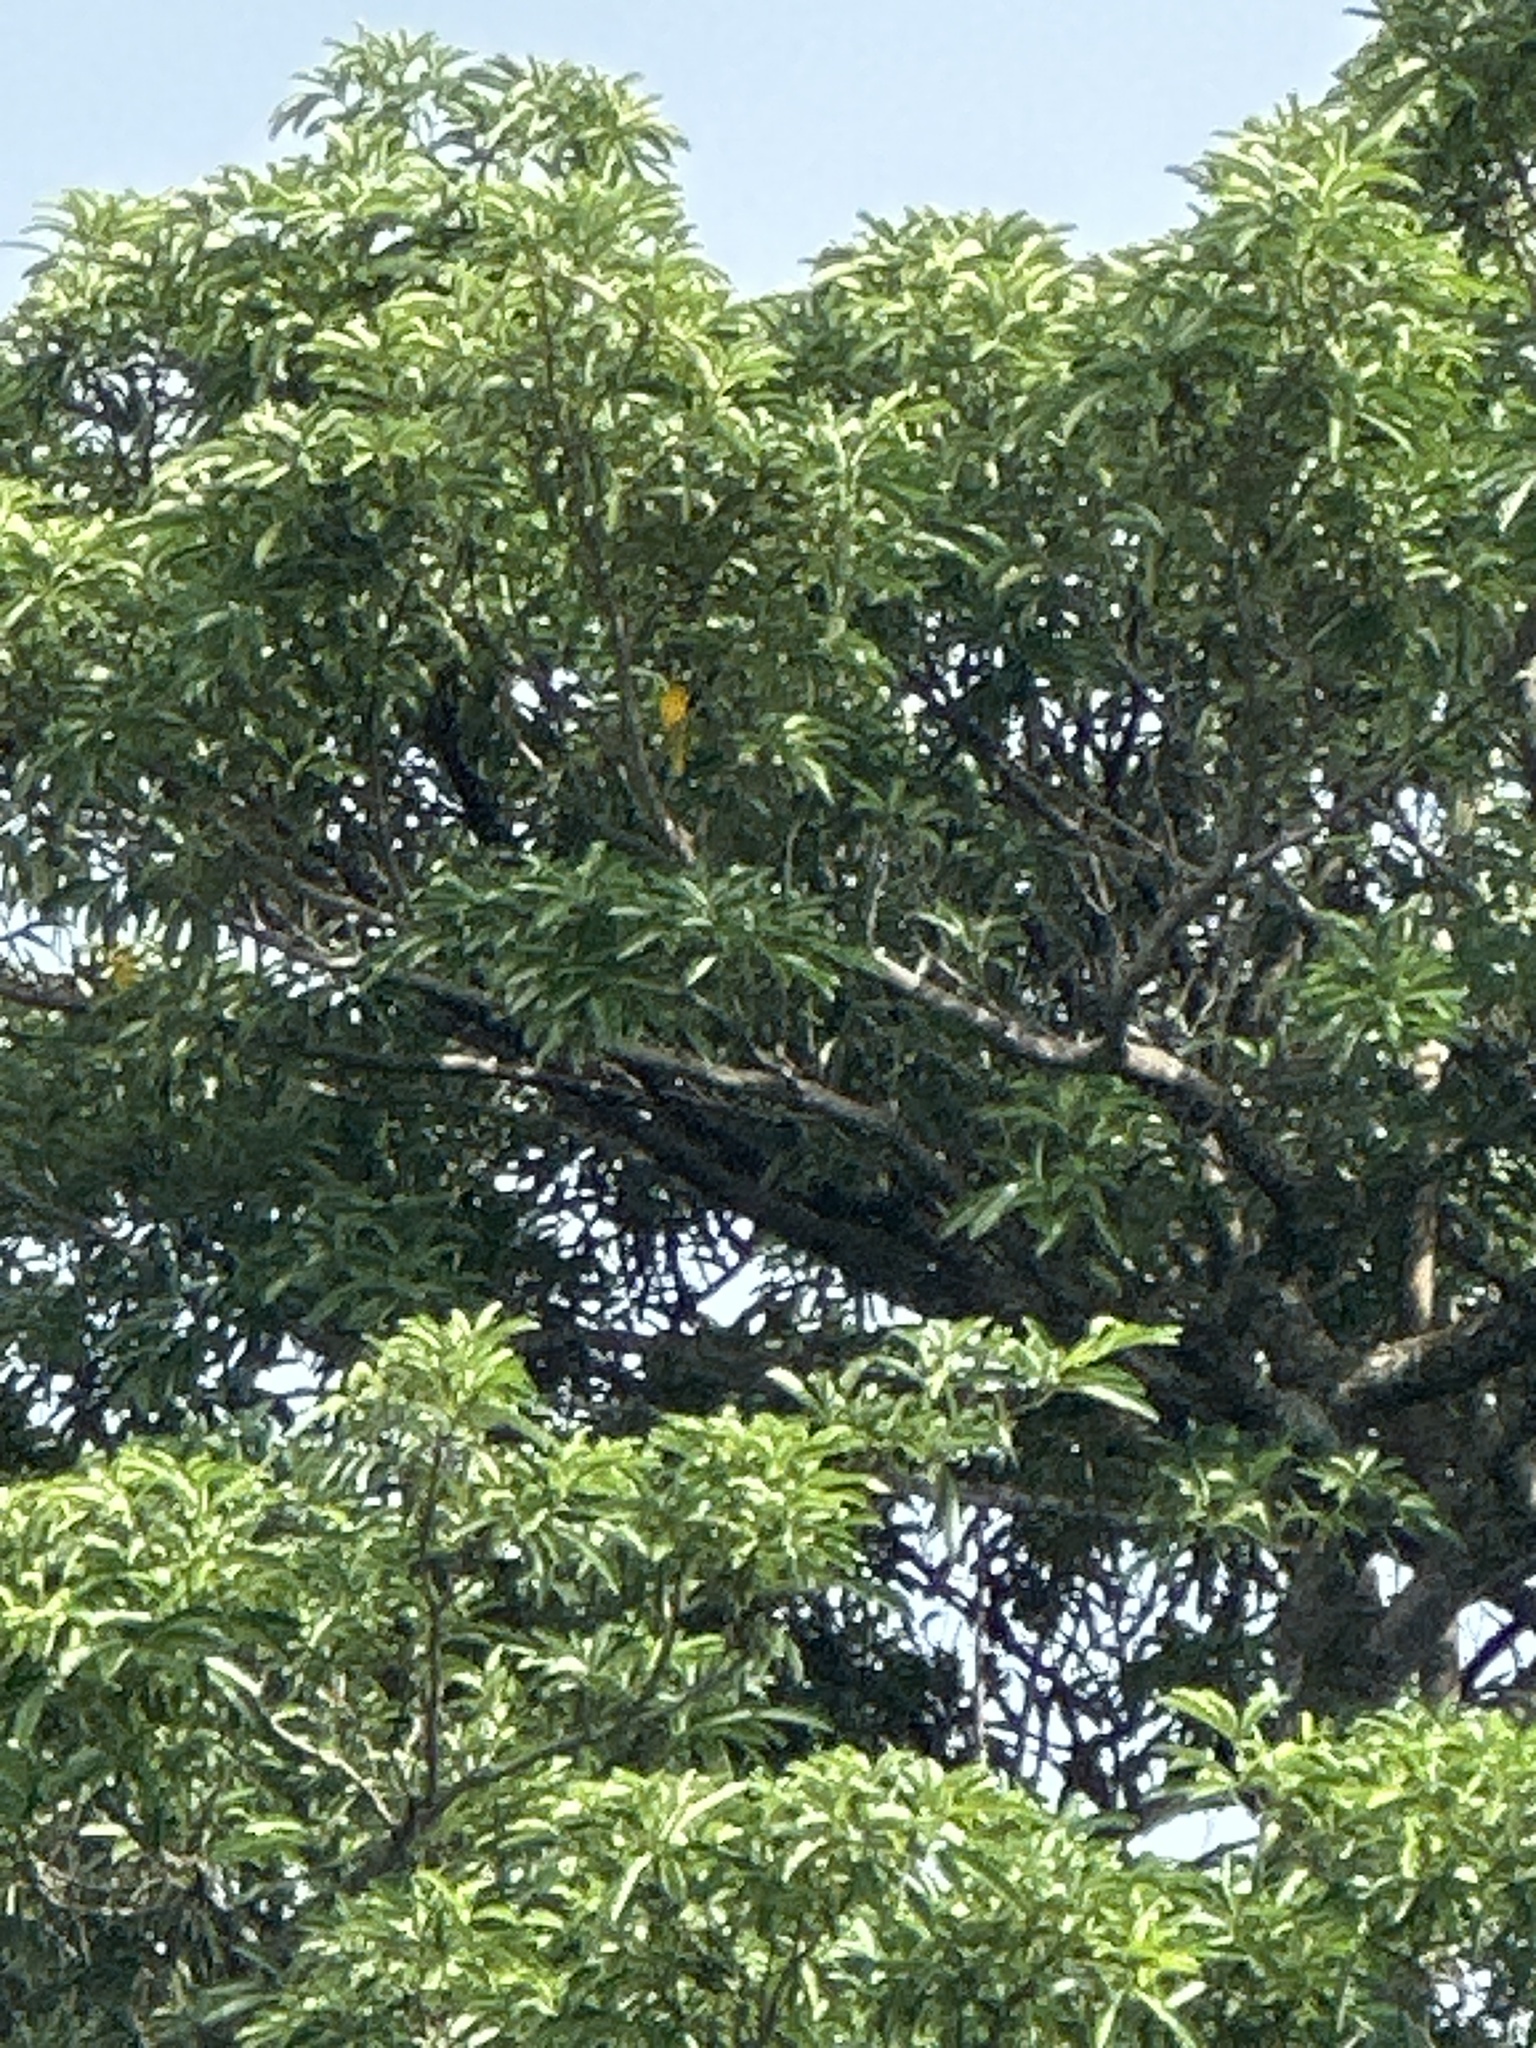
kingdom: Animalia
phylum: Chordata
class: Aves
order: Passeriformes
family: Oriolidae
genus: Oriolus
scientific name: Oriolus chinensis
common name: Black-naped oriole
